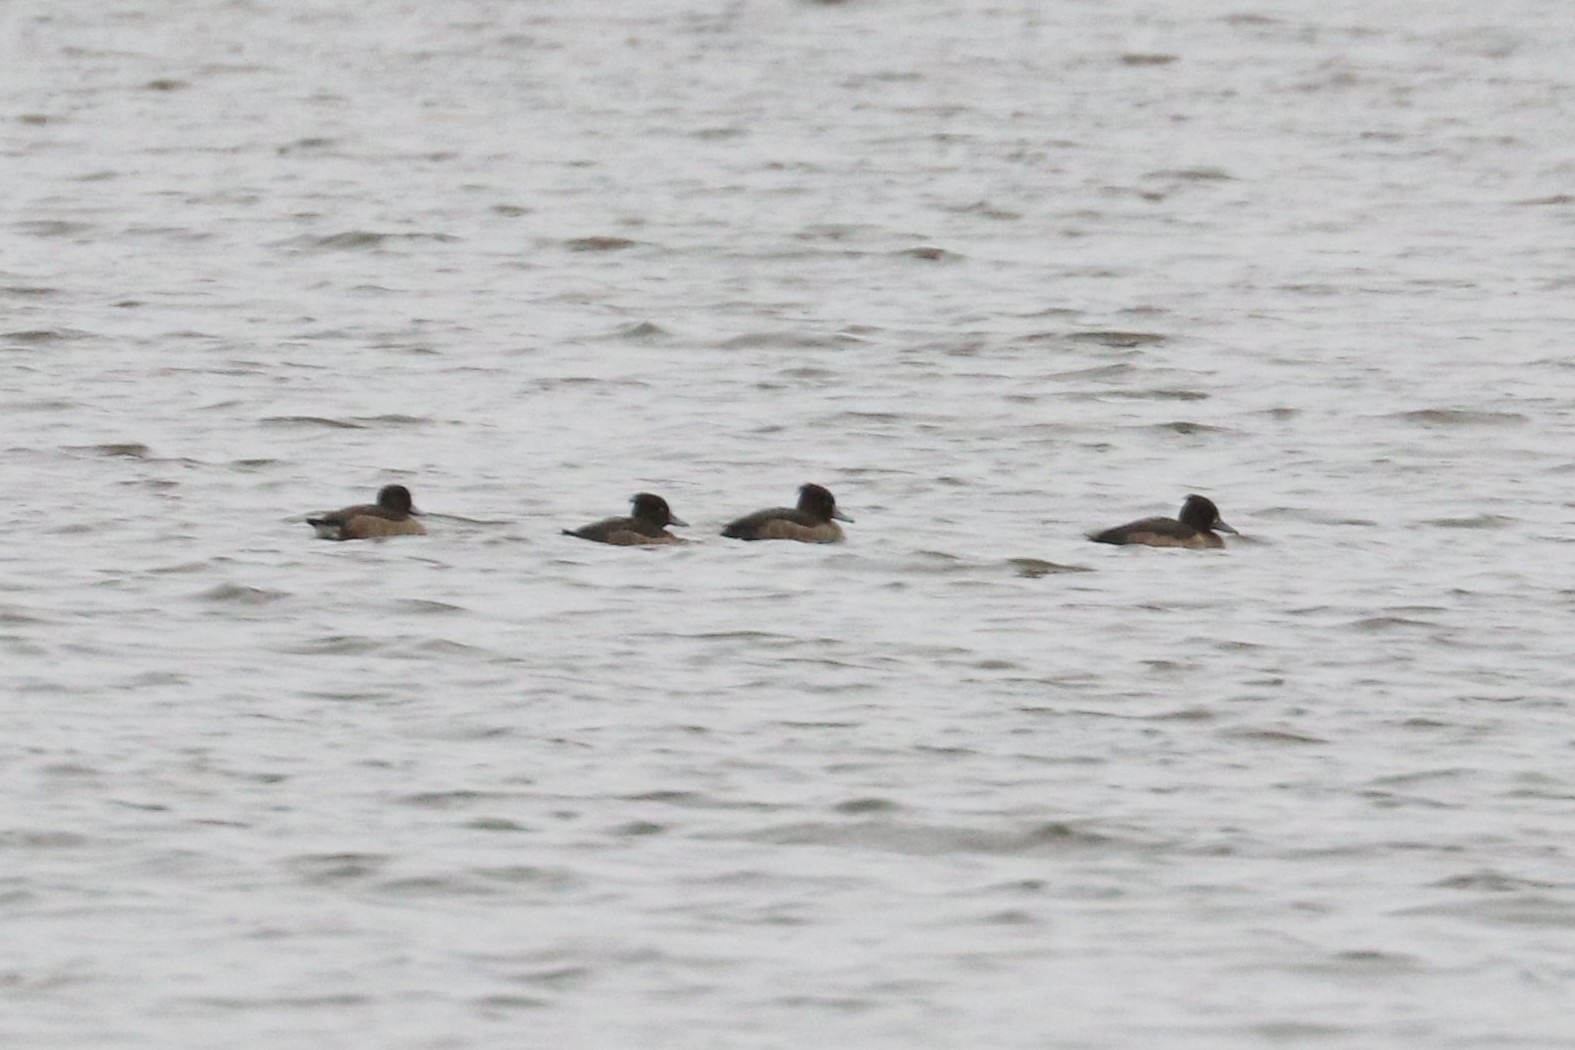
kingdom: Animalia
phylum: Chordata
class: Aves
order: Anseriformes
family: Anatidae
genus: Aythya
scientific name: Aythya fuligula
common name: Tufted duck
